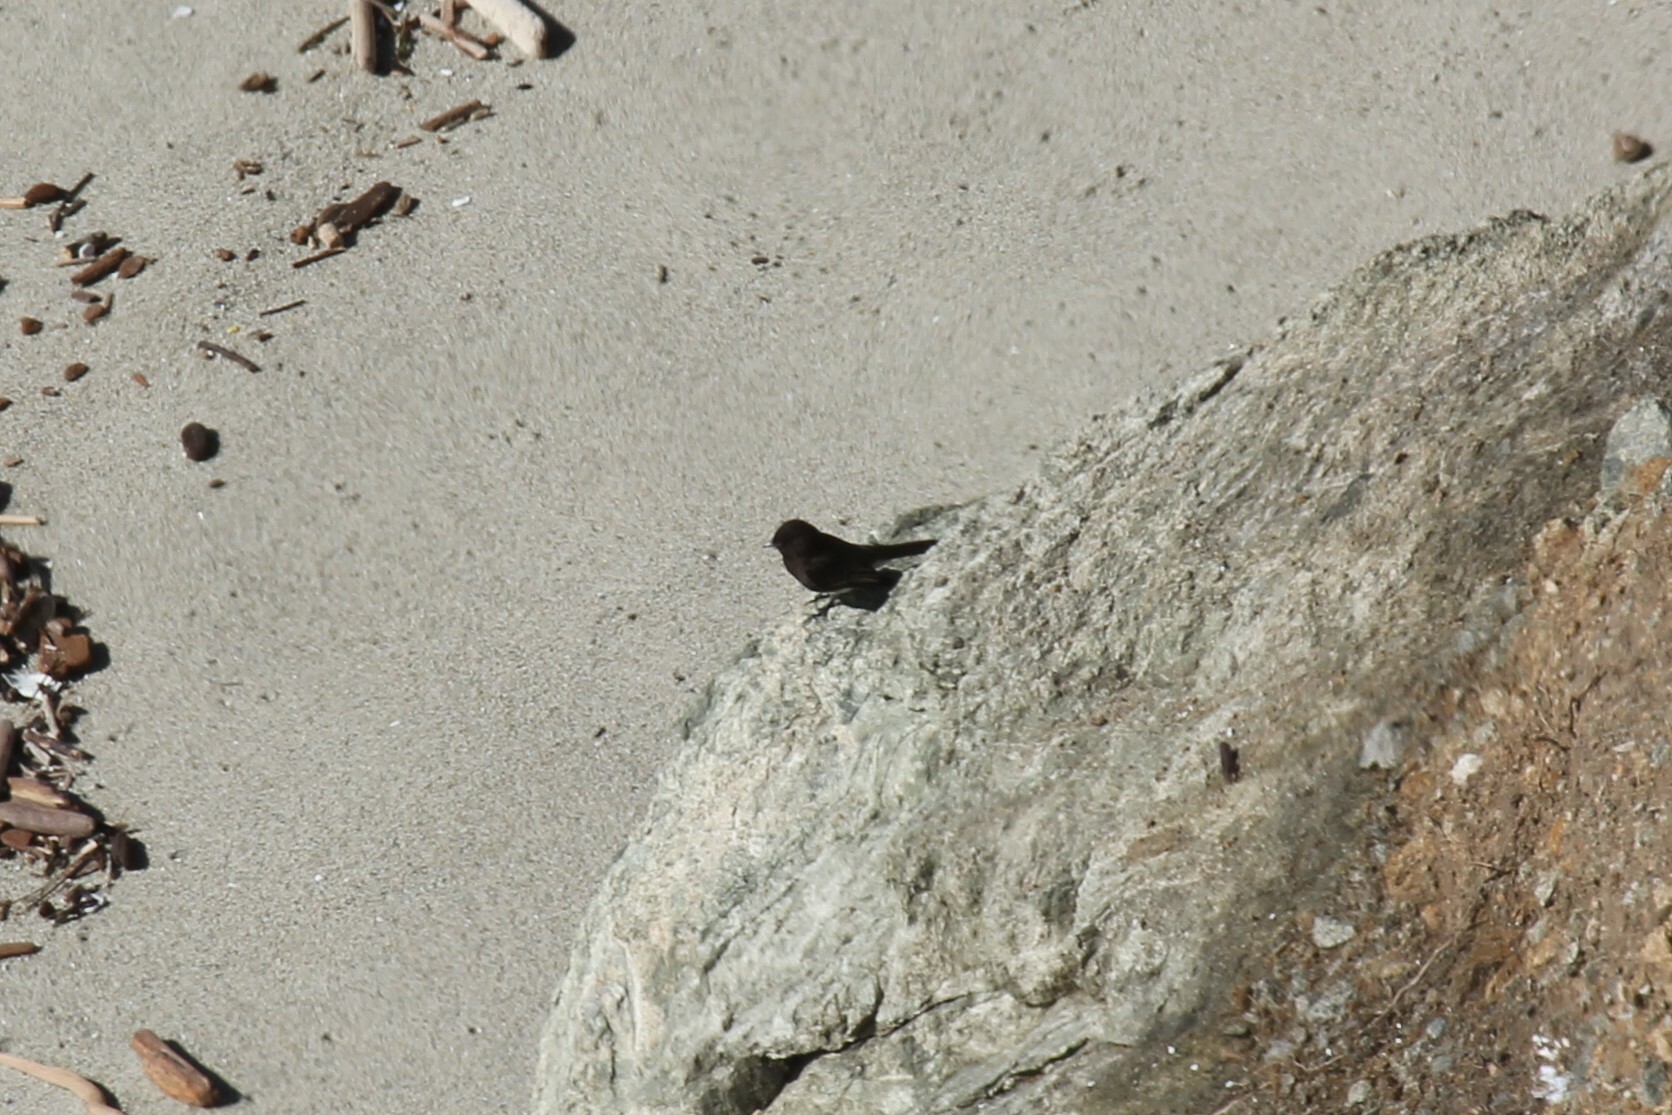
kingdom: Animalia
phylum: Chordata
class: Aves
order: Passeriformes
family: Tyrannidae
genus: Sayornis
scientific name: Sayornis nigricans
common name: Black phoebe
